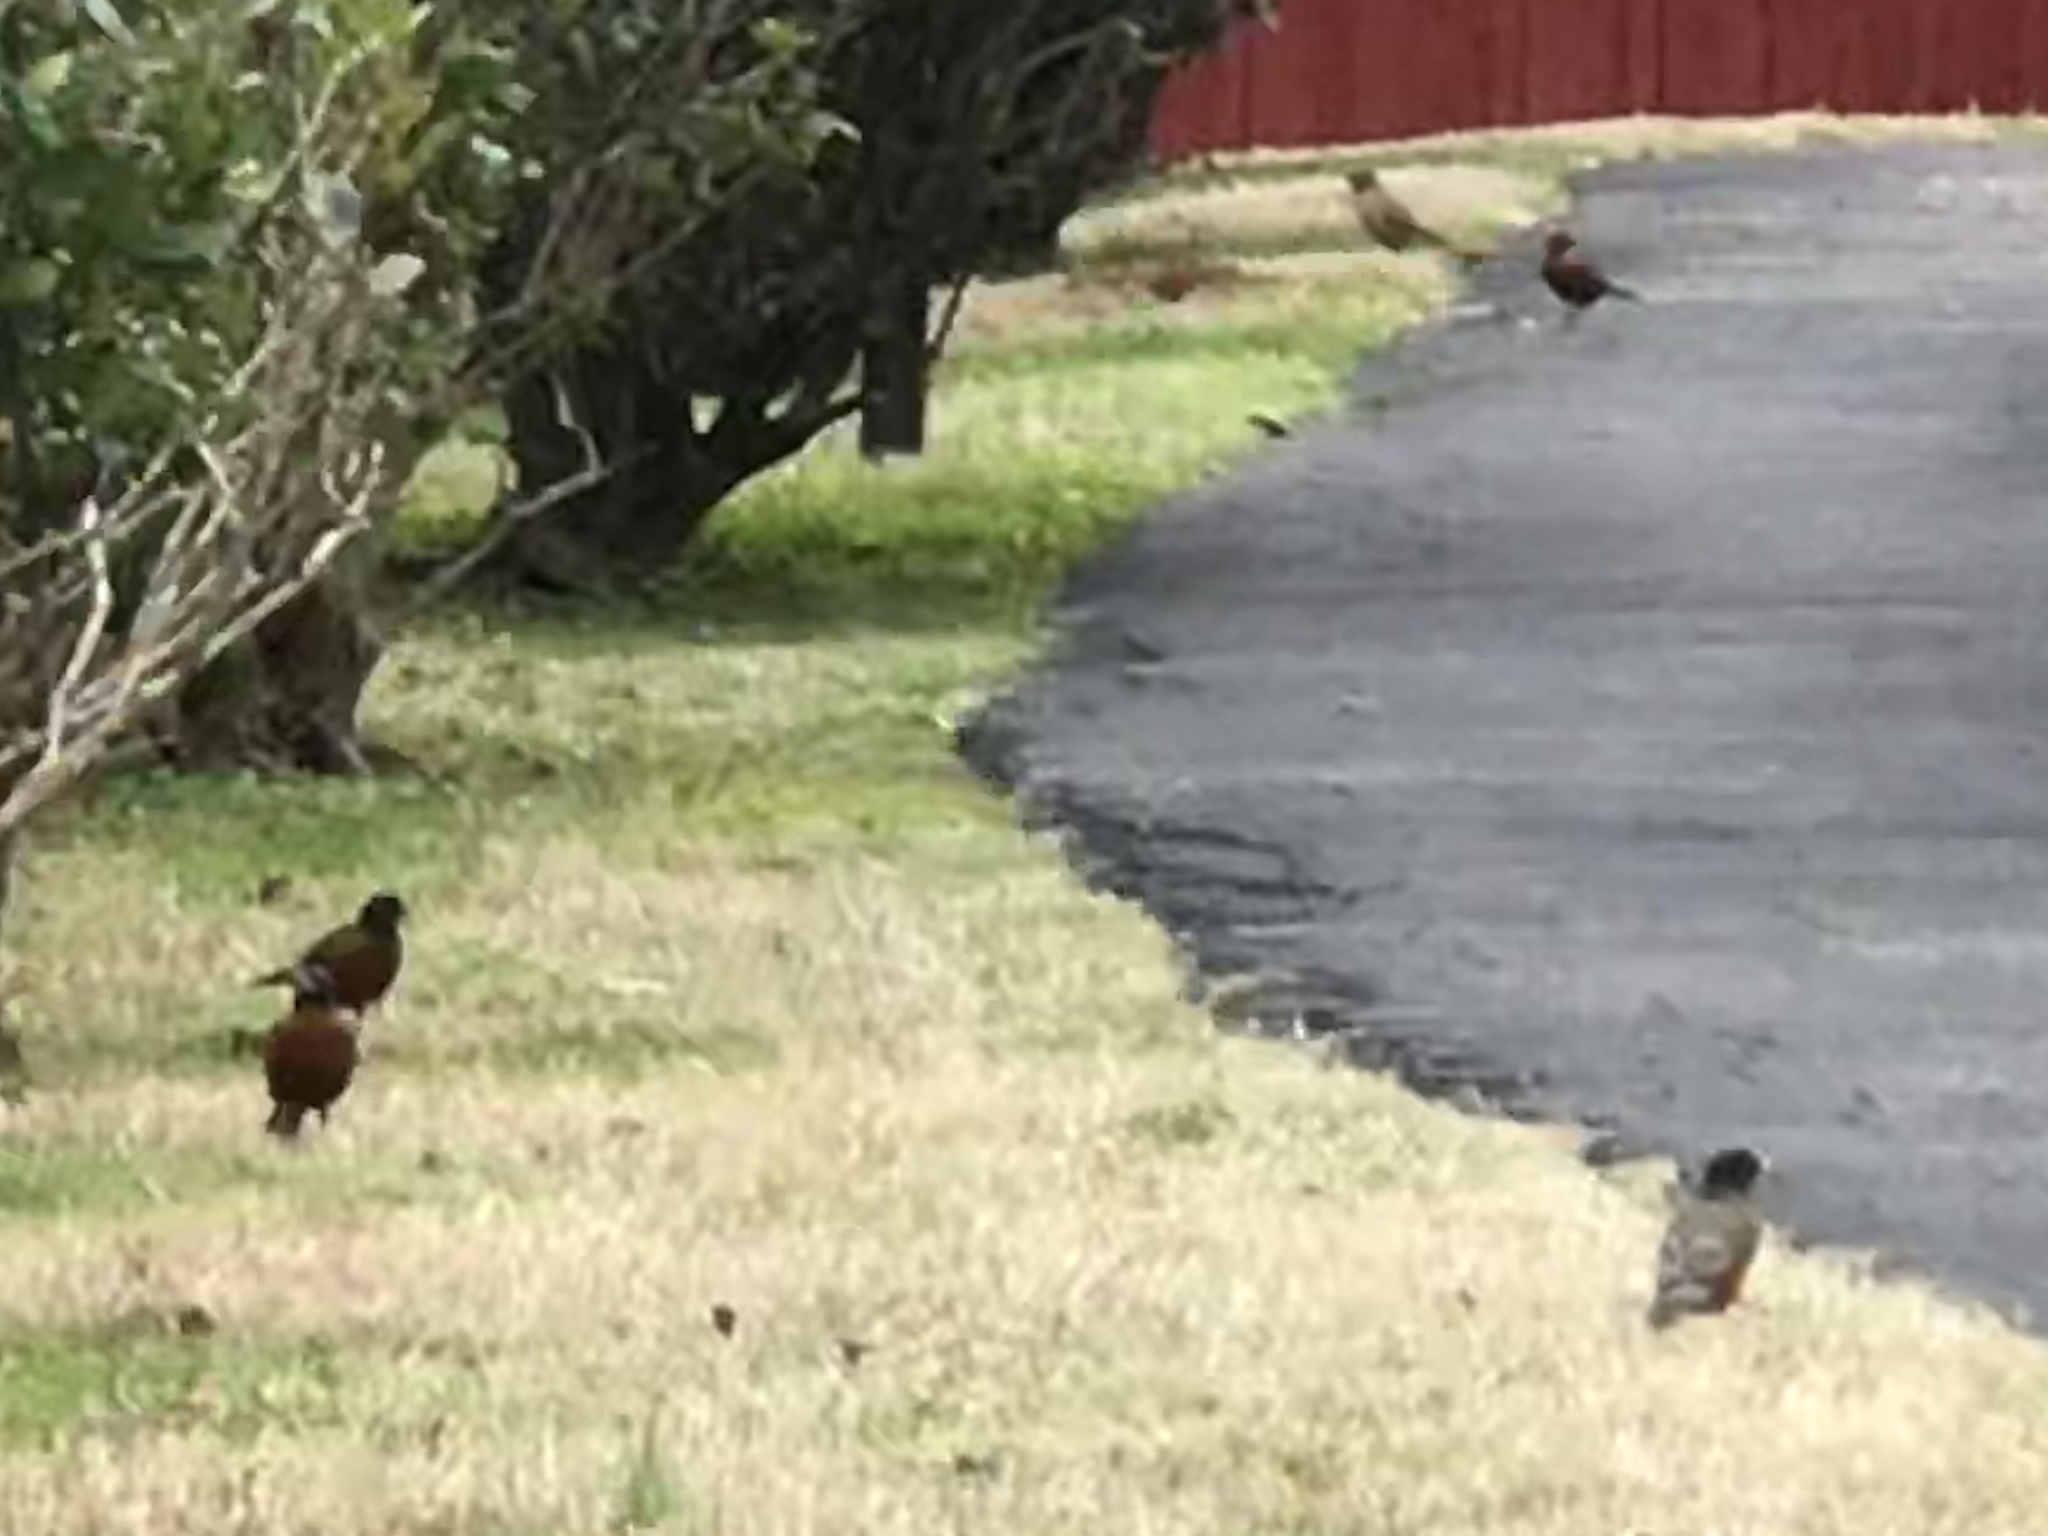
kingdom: Animalia
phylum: Chordata
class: Aves
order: Passeriformes
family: Turdidae
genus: Turdus
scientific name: Turdus migratorius
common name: American robin
